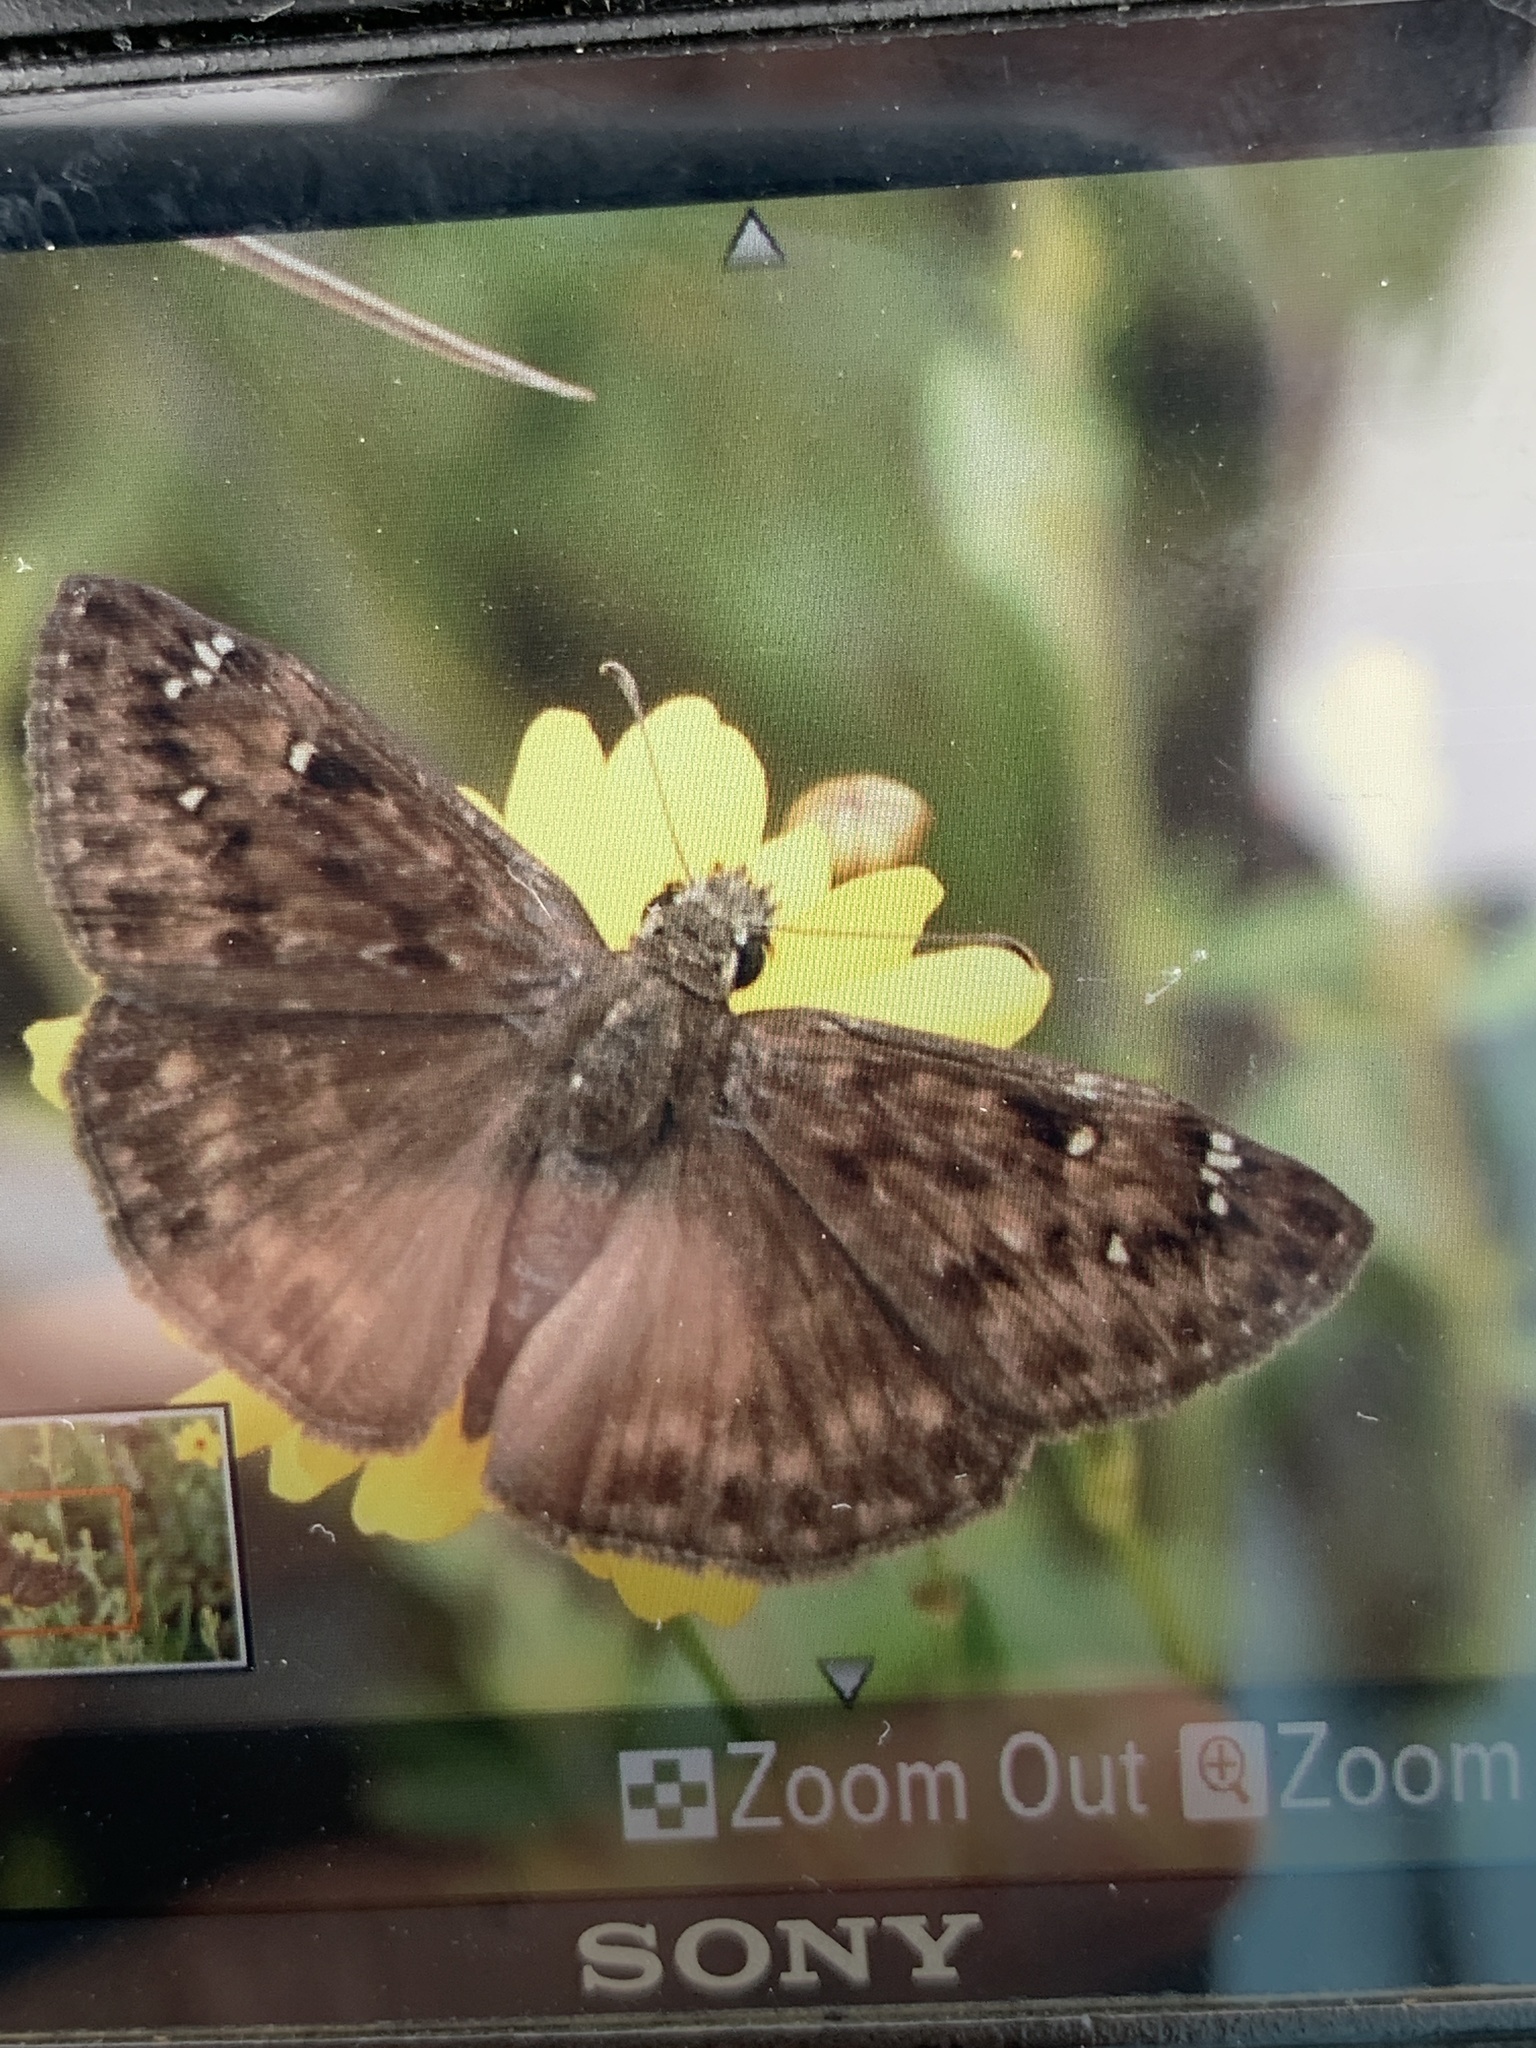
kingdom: Animalia
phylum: Arthropoda
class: Insecta
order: Lepidoptera
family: Hesperiidae
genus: Erynnis
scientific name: Erynnis horatius
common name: Horace's duskywing
